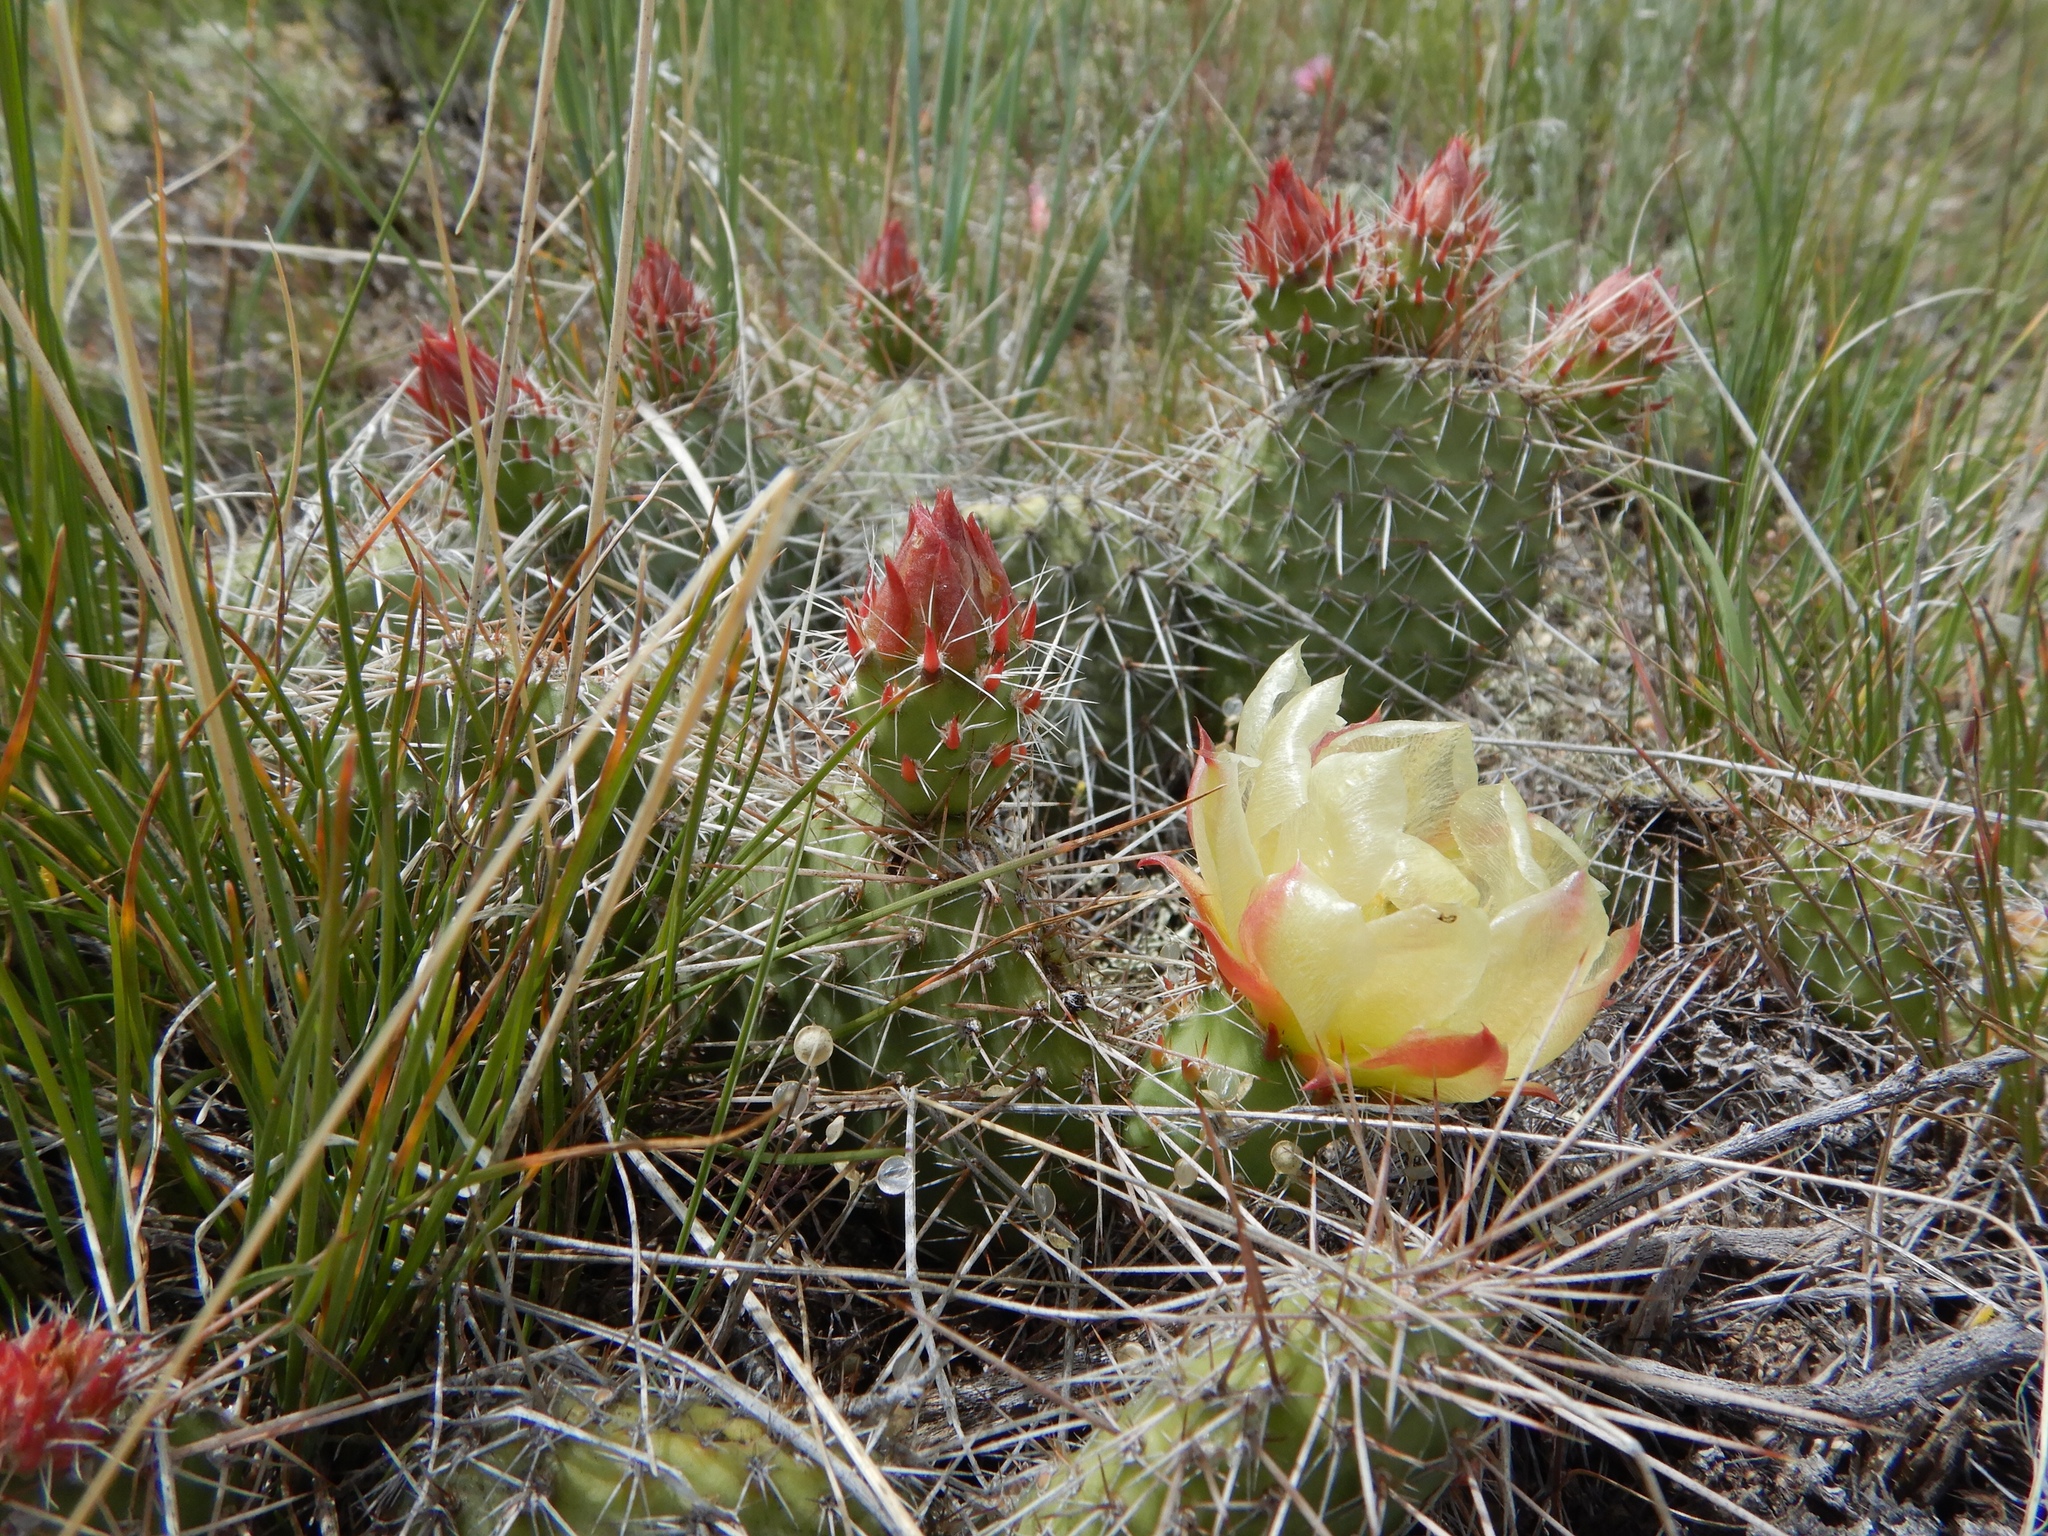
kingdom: Plantae
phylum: Tracheophyta
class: Magnoliopsida
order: Caryophyllales
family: Cactaceae
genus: Opuntia
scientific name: Opuntia polyacantha
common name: Plains prickly-pear
